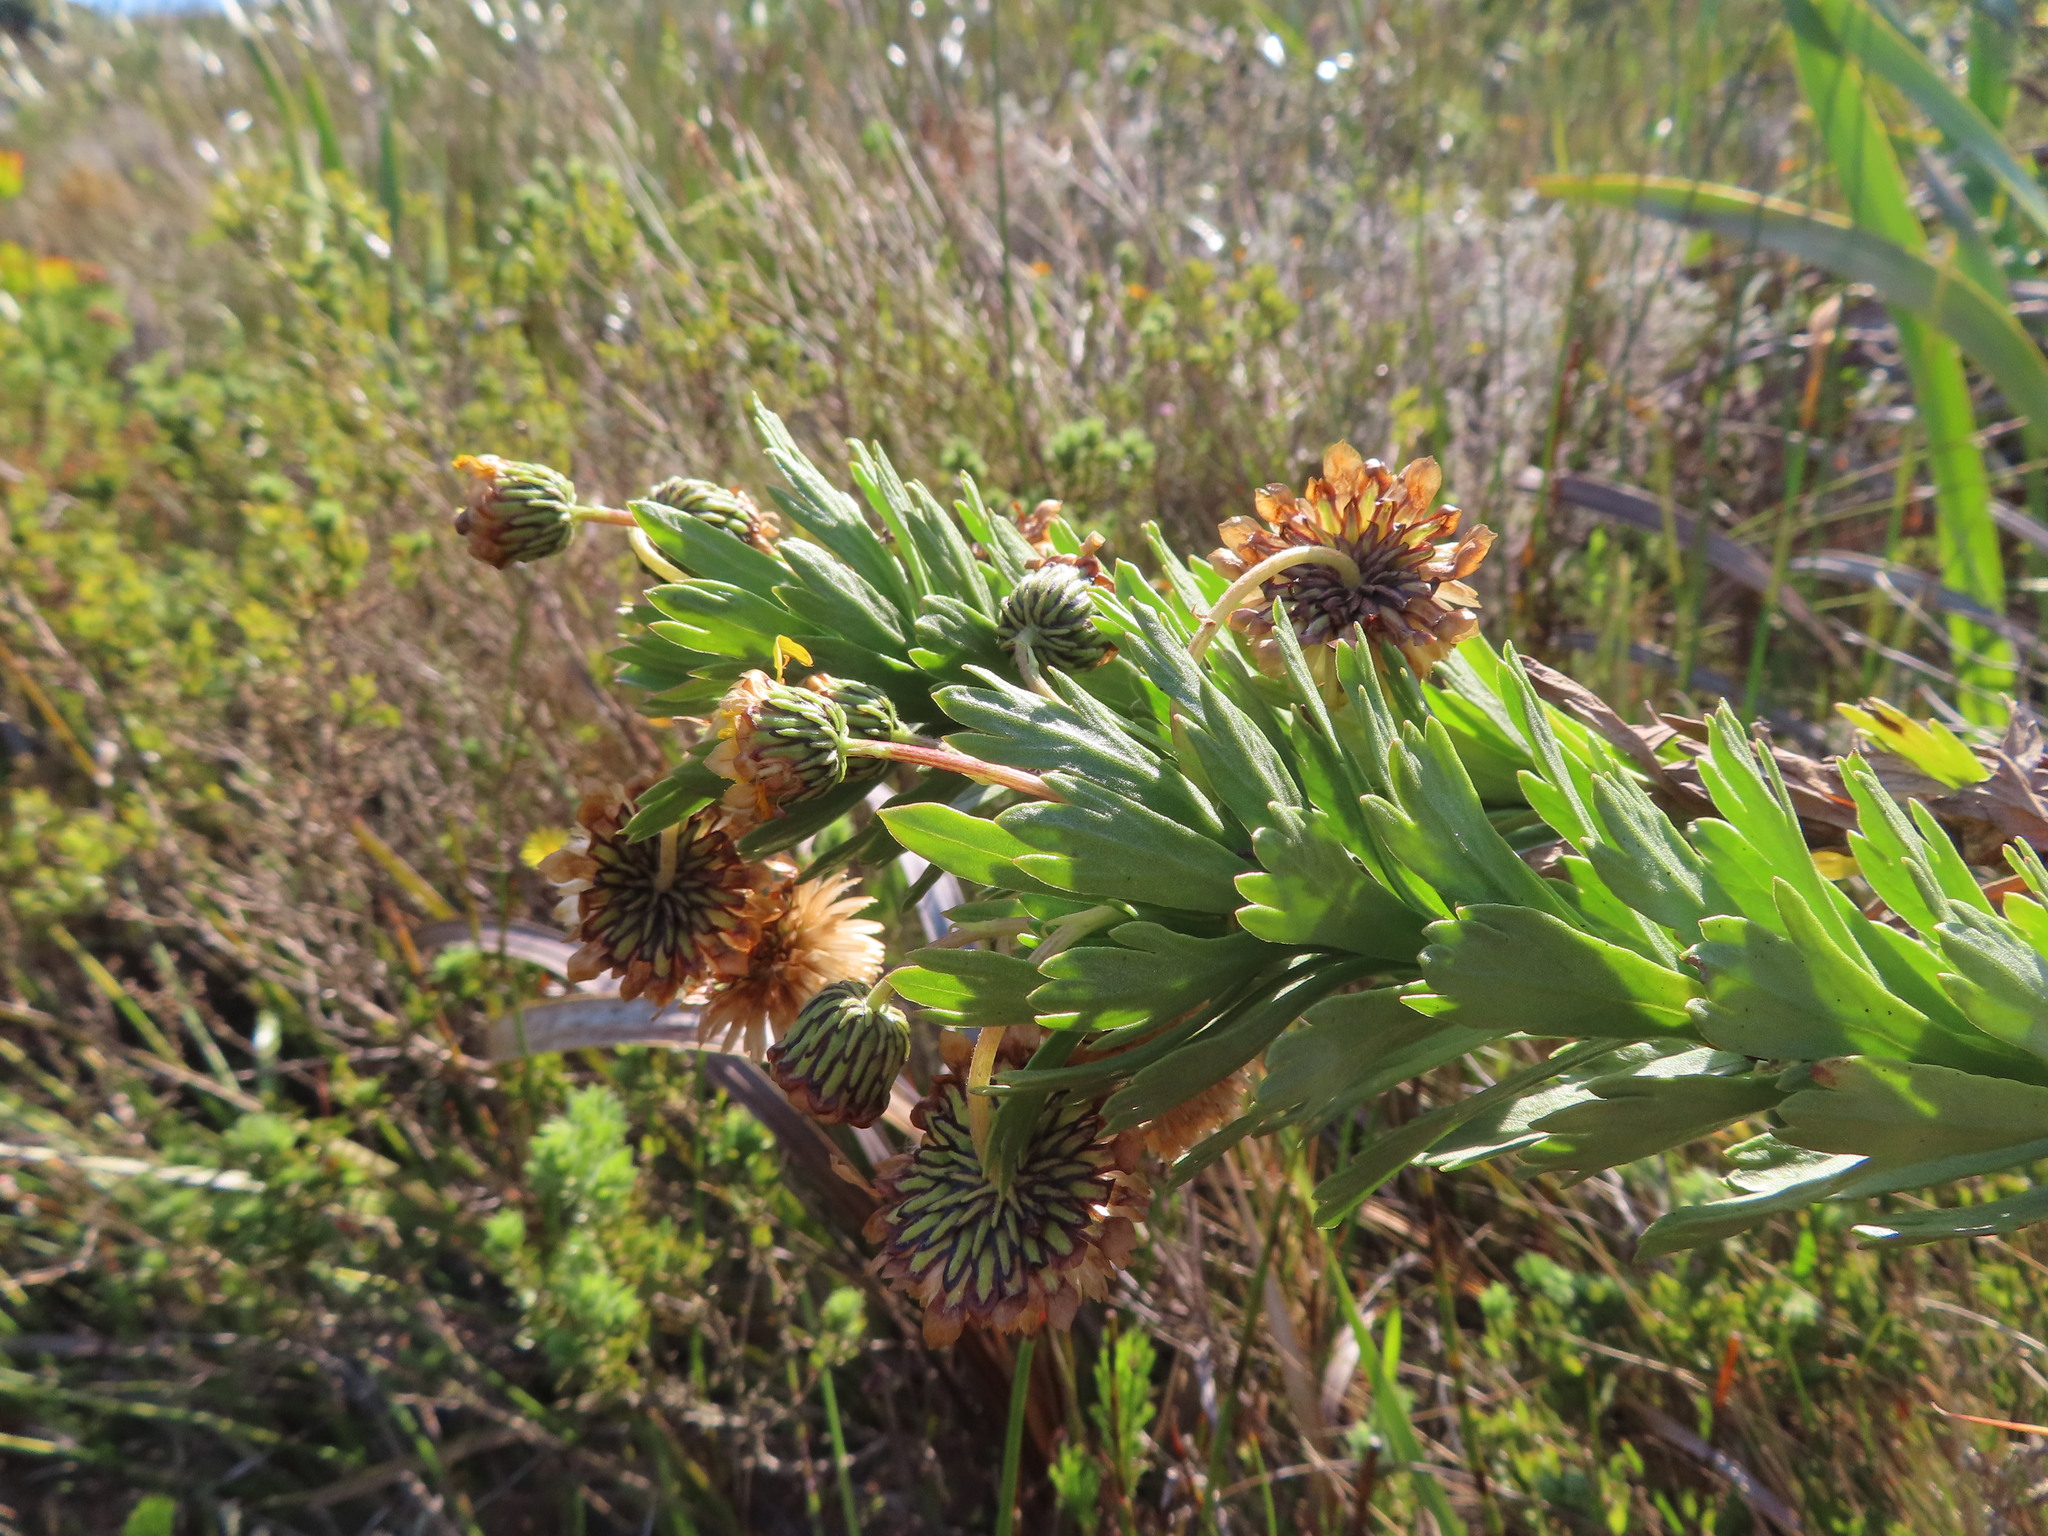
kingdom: Plantae
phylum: Tracheophyta
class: Magnoliopsida
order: Asterales
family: Asteraceae
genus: Ursinia
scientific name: Ursinia caledonica
